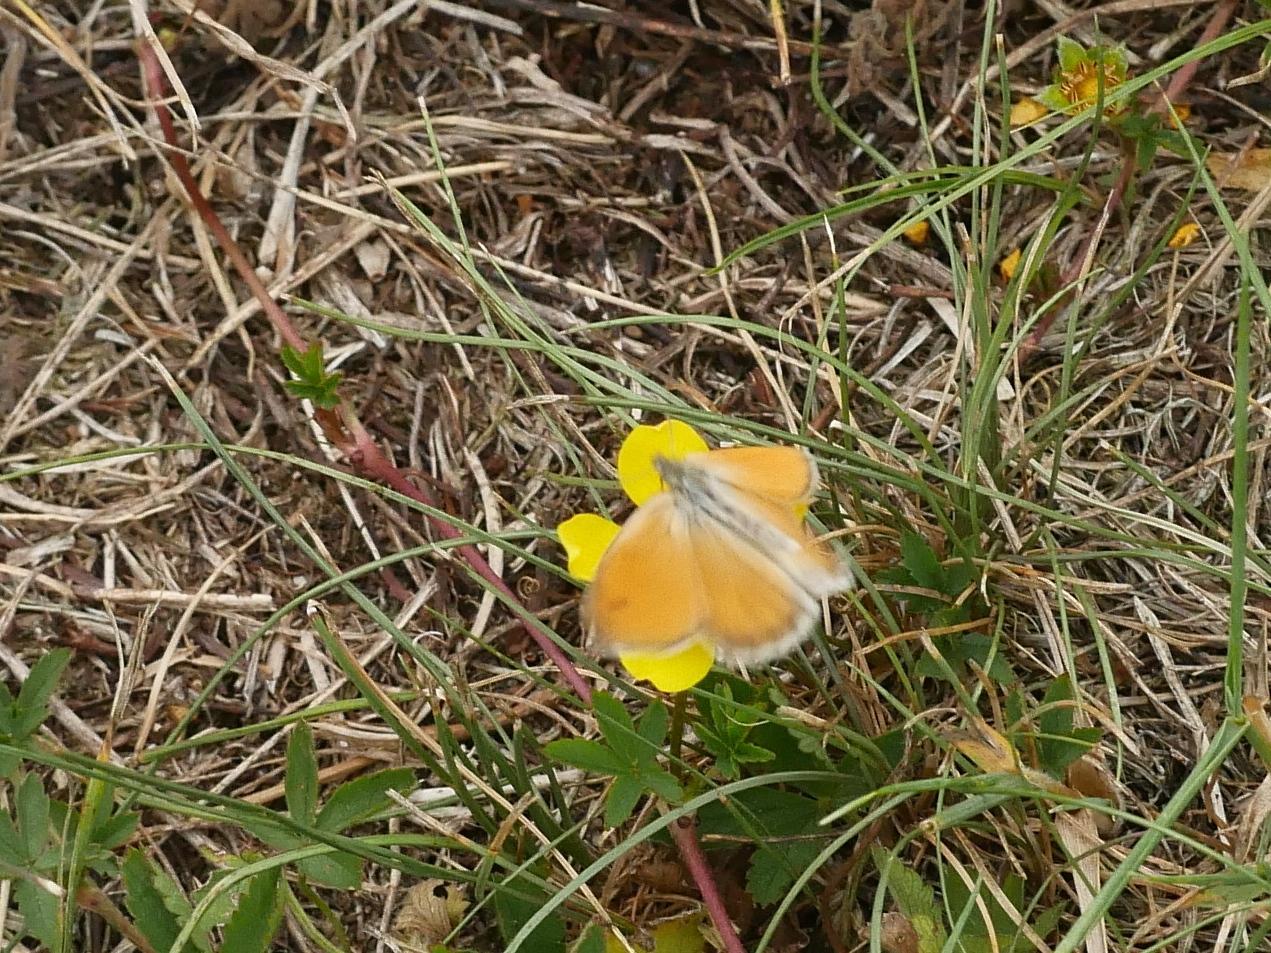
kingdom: Animalia
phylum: Arthropoda
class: Insecta
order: Lepidoptera
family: Nymphalidae
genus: Coenonympha
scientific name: Coenonympha pamphilus
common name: Small heath
